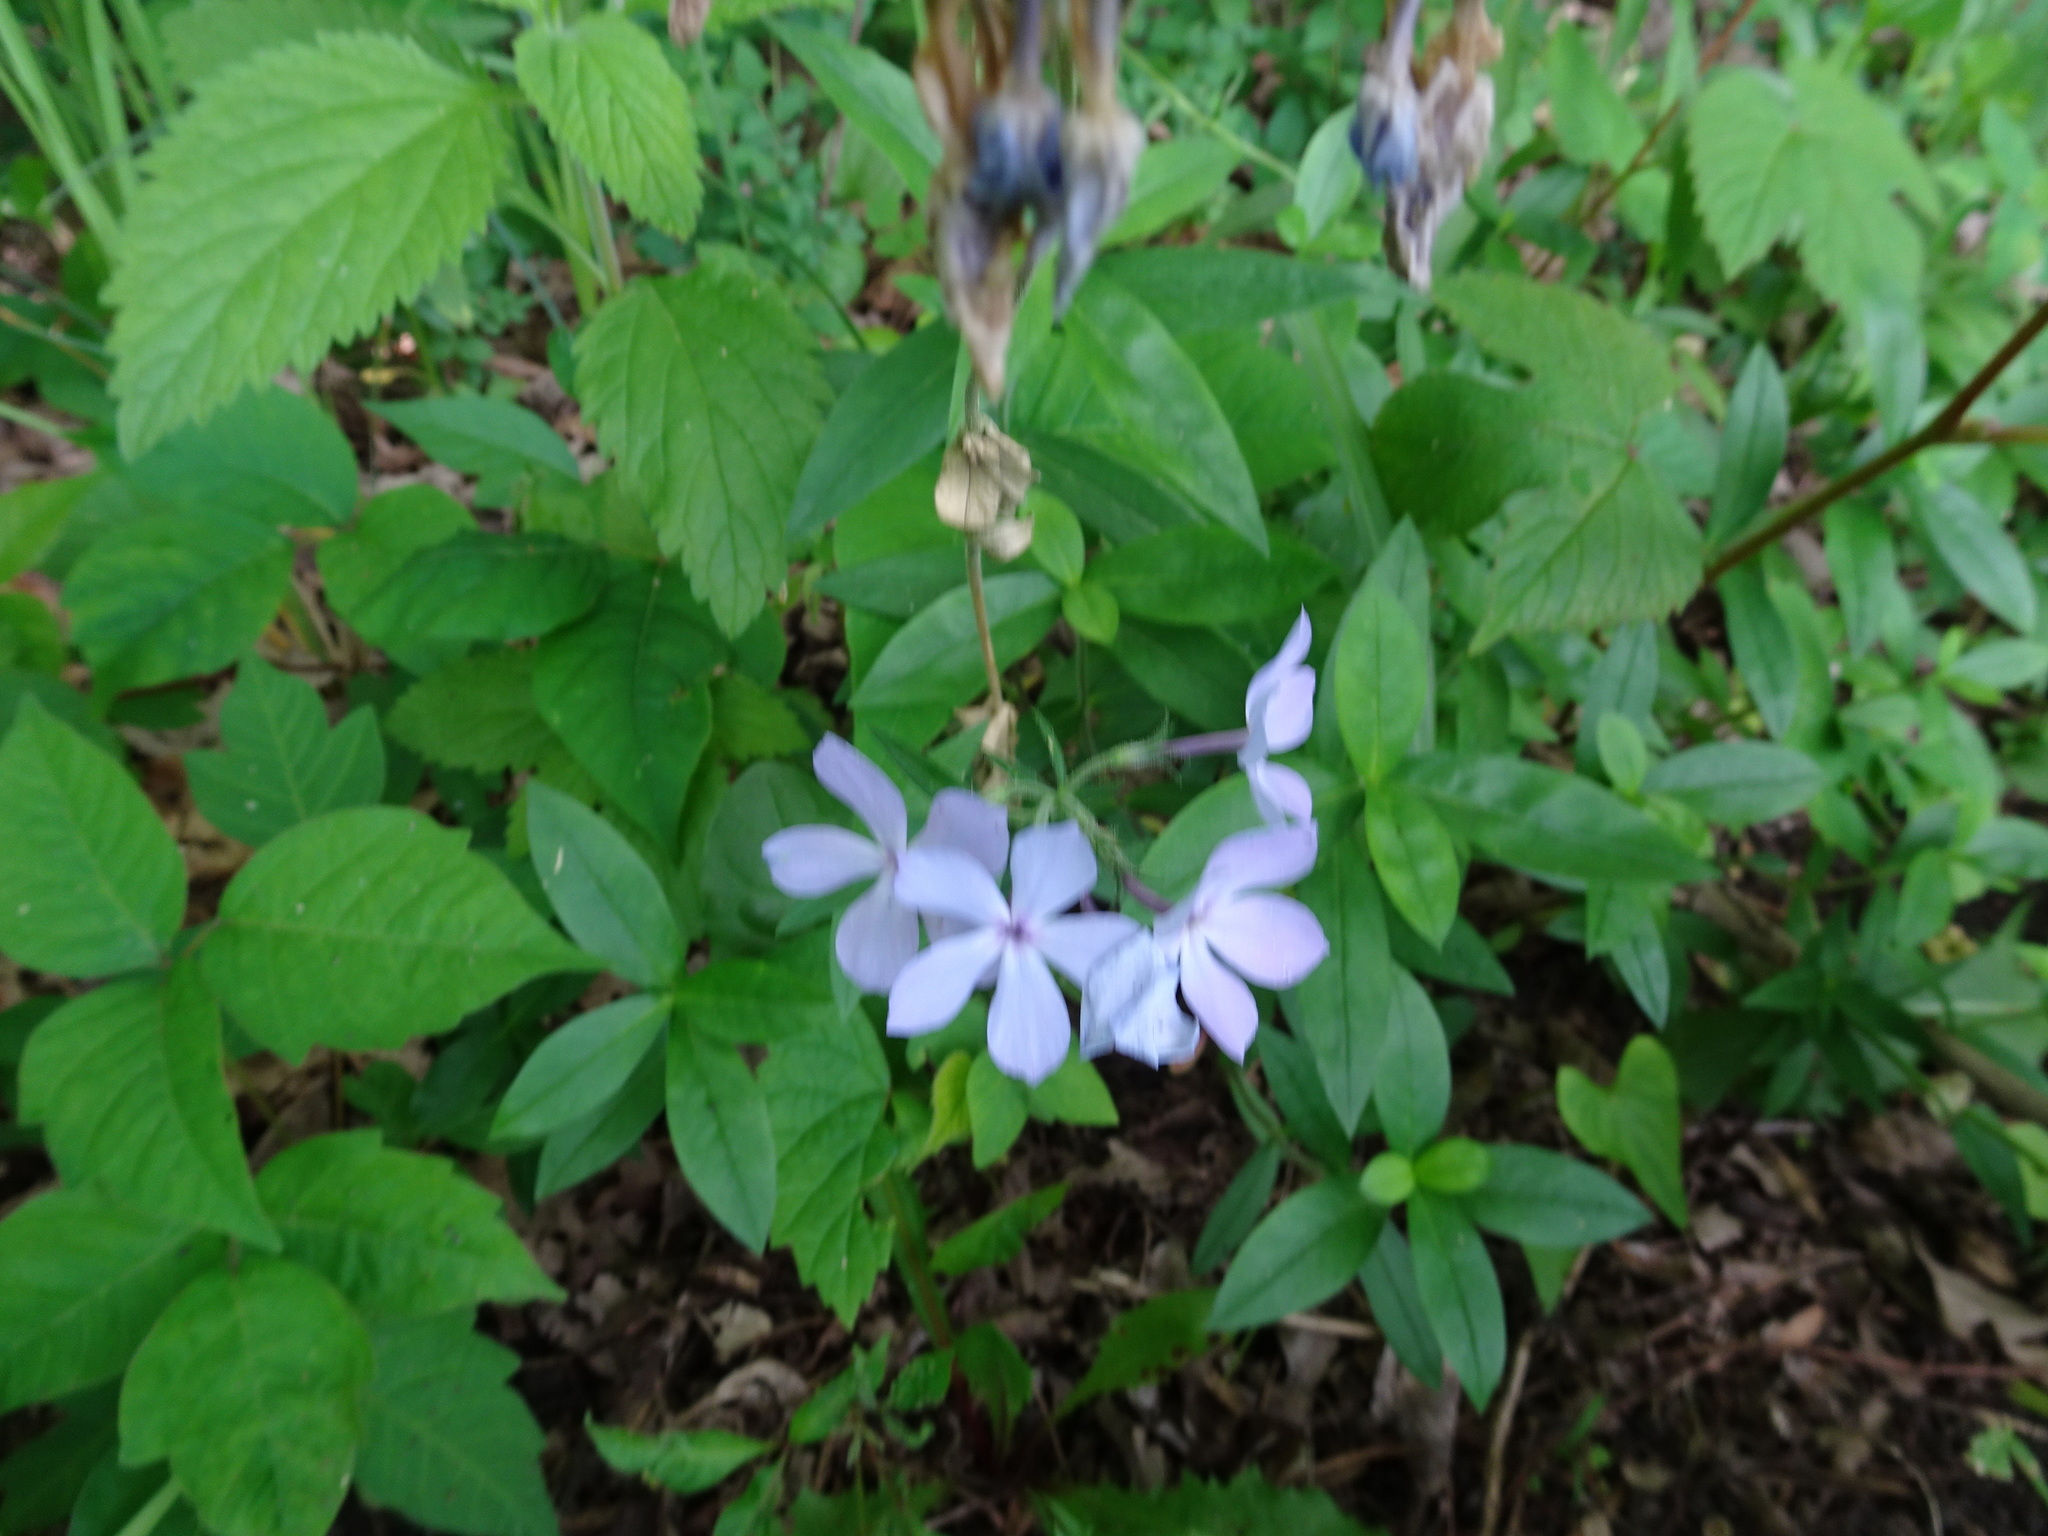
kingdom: Plantae
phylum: Tracheophyta
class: Magnoliopsida
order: Ericales
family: Polemoniaceae
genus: Phlox
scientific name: Phlox divaricata
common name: Blue phlox
